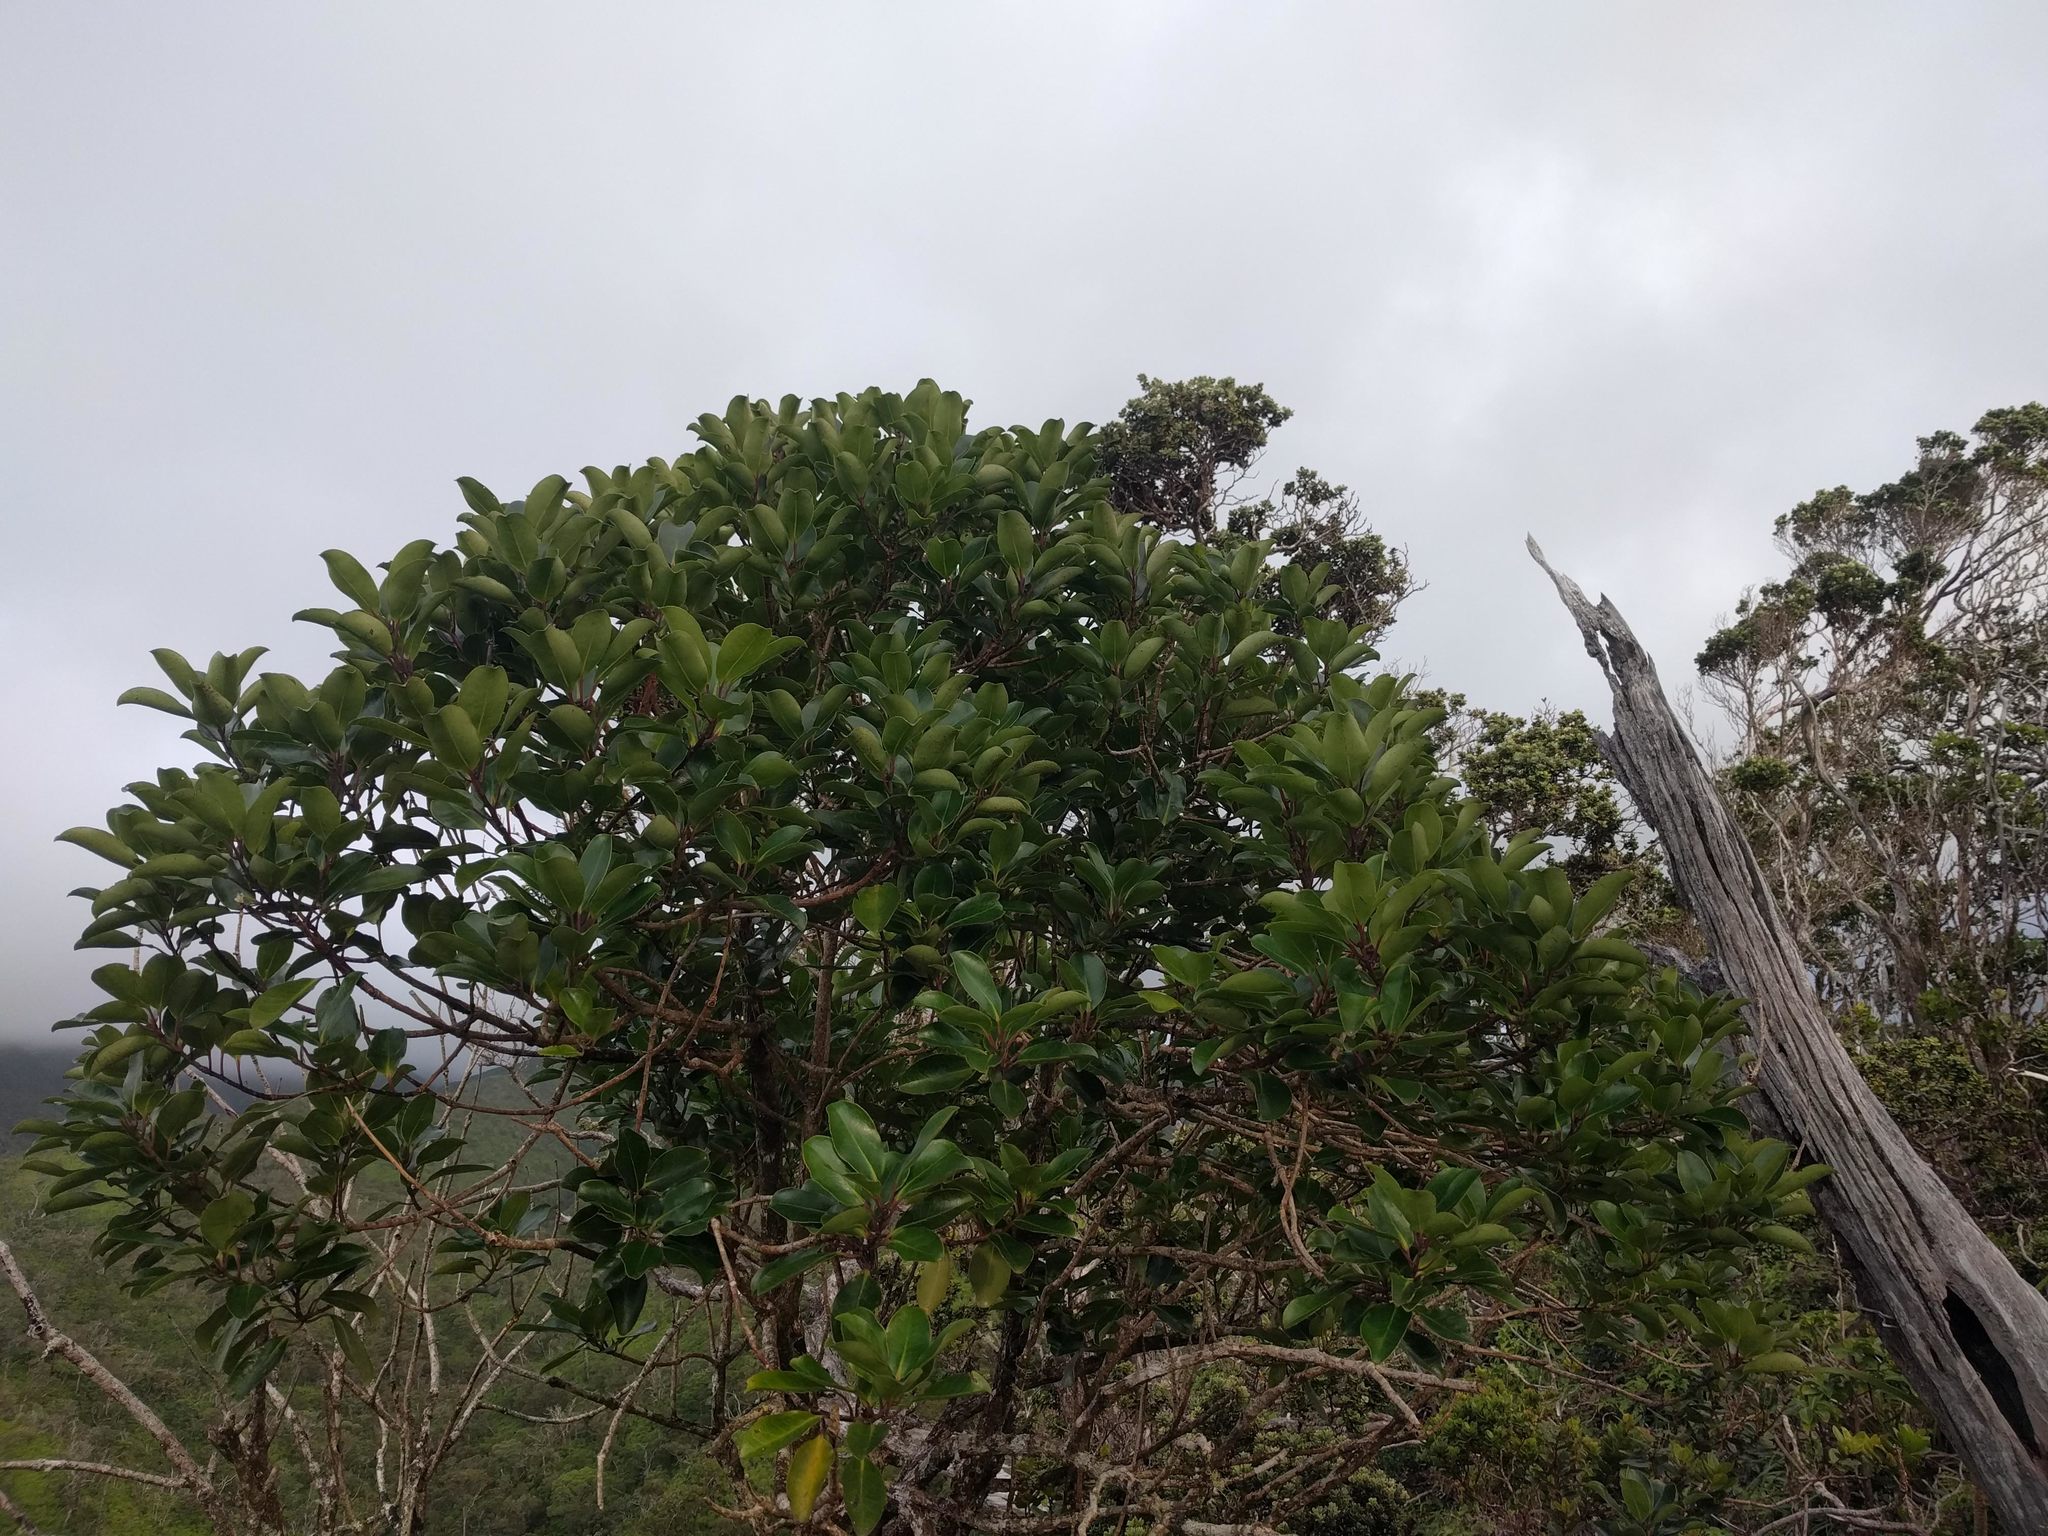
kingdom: Plantae
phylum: Tracheophyta
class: Magnoliopsida
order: Aquifoliales
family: Aquifoliaceae
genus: Ilex
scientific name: Ilex anomala
